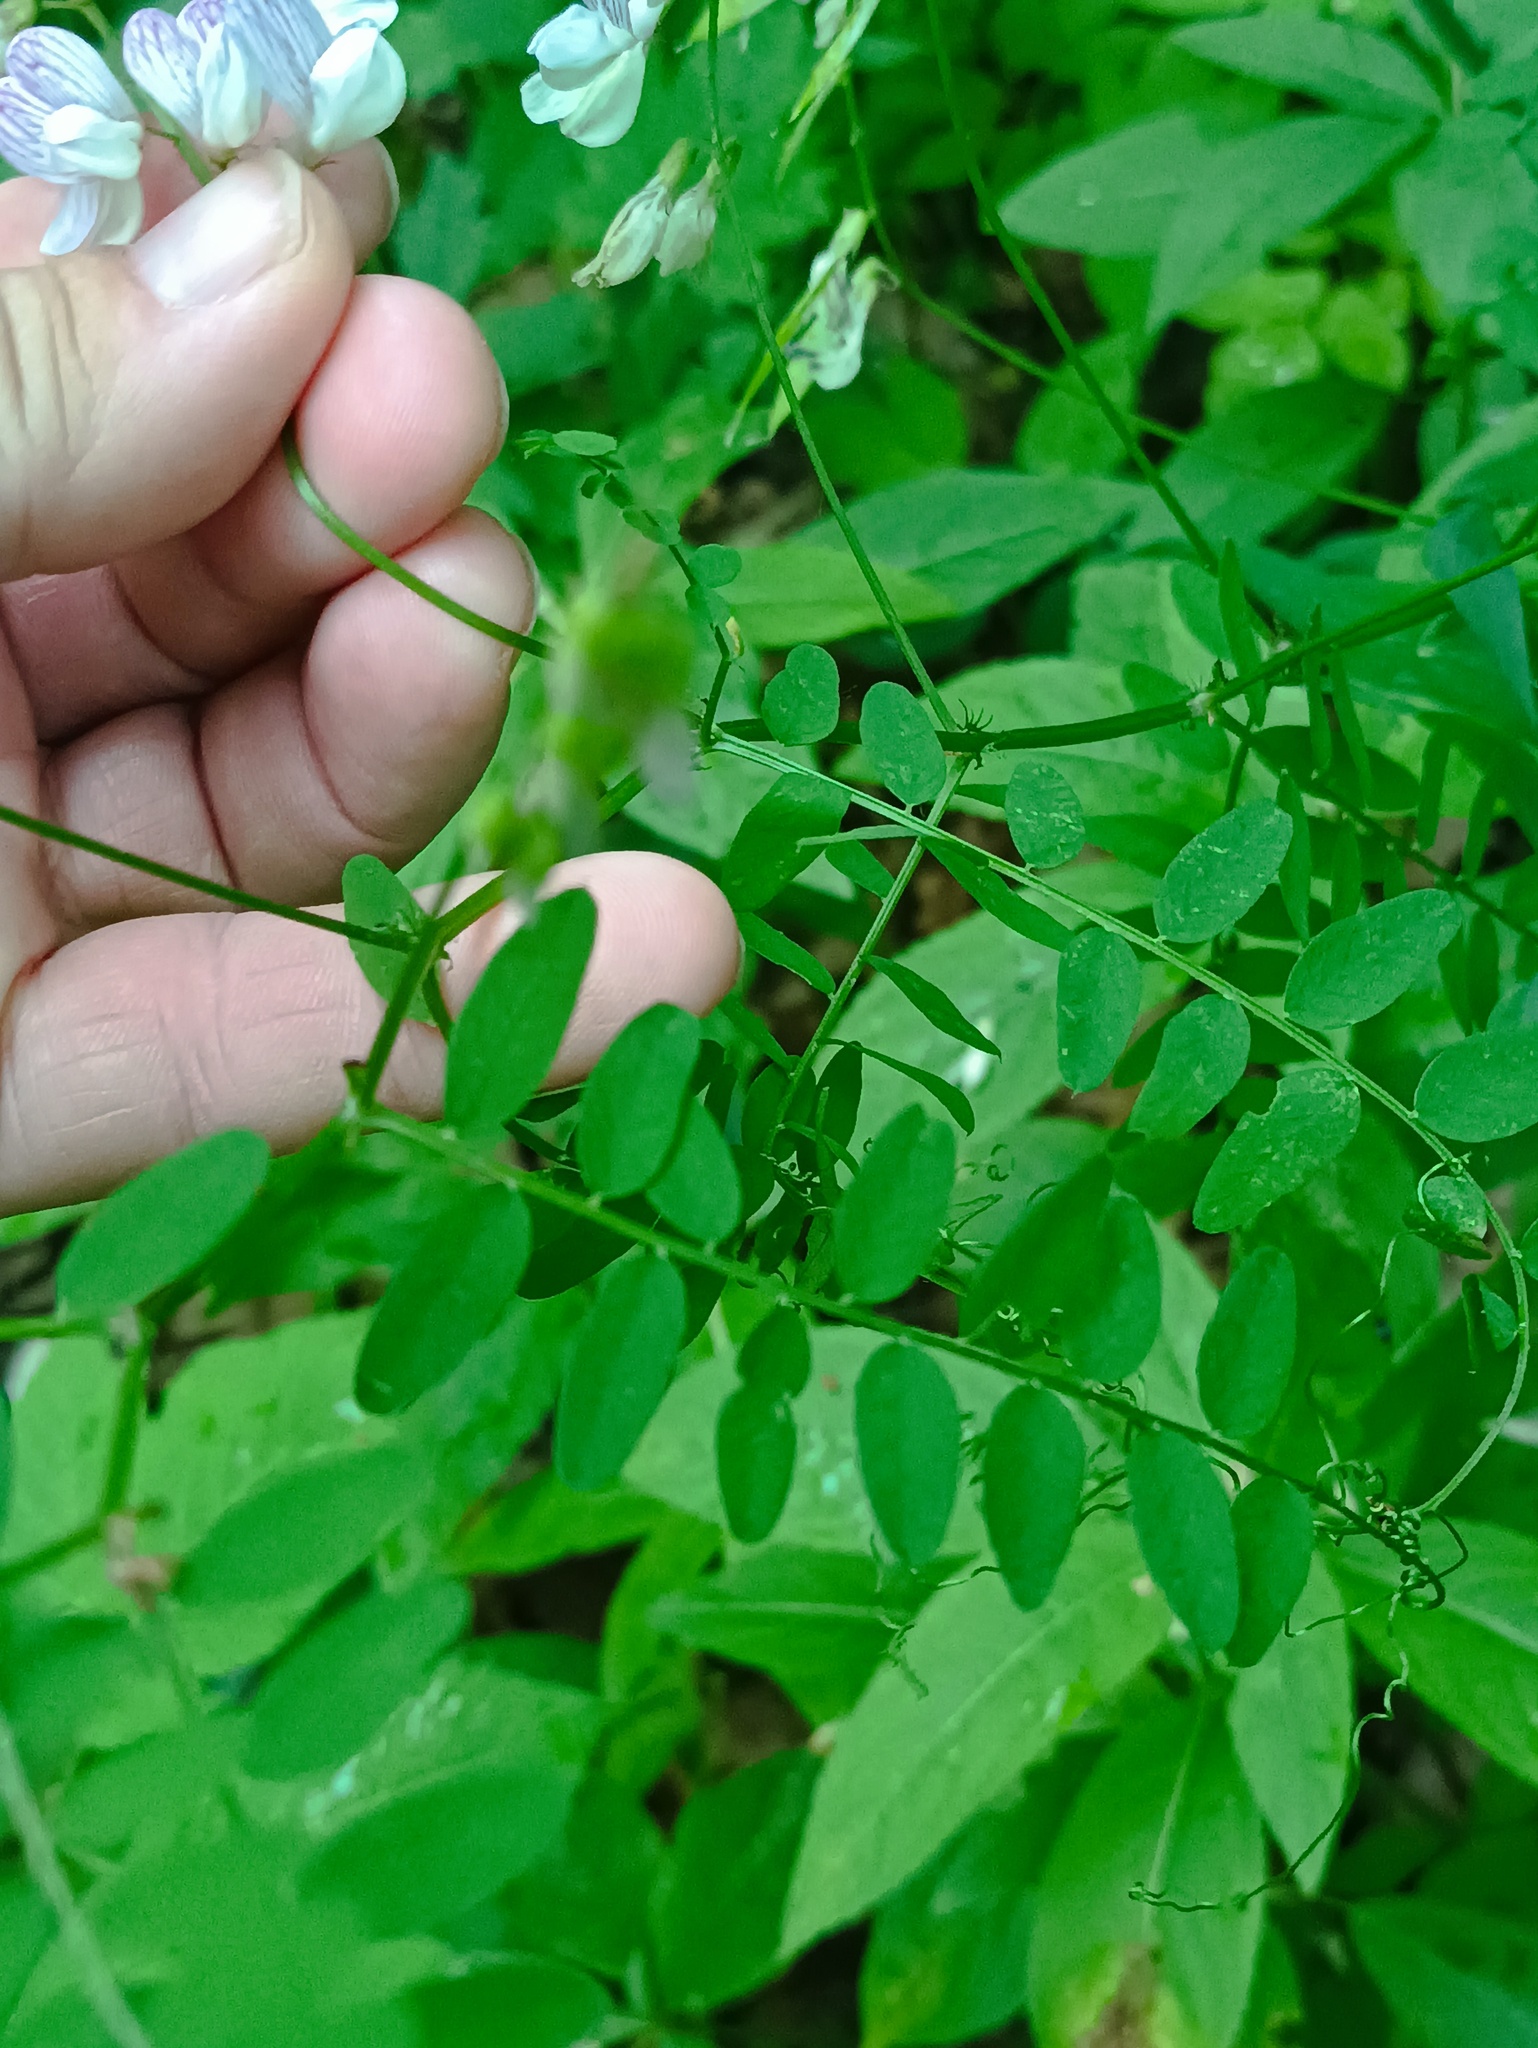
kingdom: Plantae
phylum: Tracheophyta
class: Magnoliopsida
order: Fabales
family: Fabaceae
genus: Vicia
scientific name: Vicia sylvatica
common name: Wood vetch
